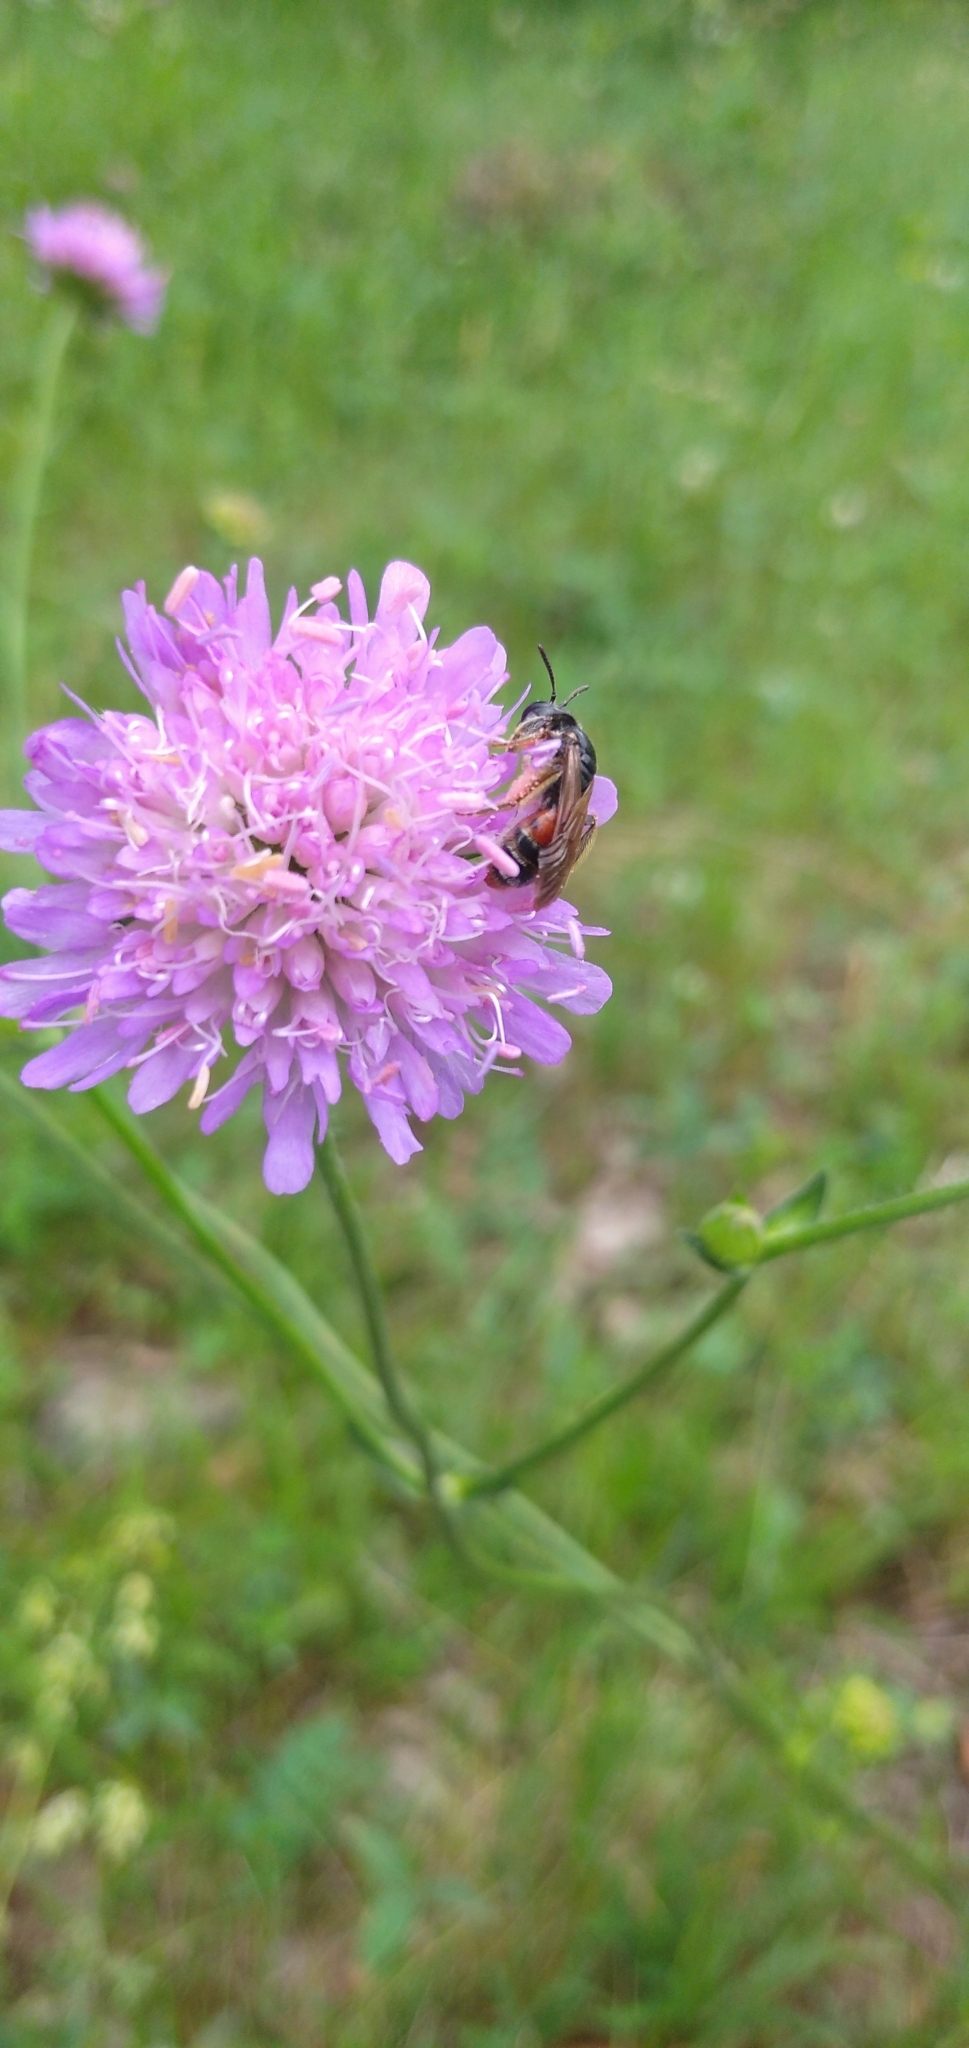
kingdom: Plantae
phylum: Tracheophyta
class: Magnoliopsida
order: Dipsacales
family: Caprifoliaceae
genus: Knautia
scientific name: Knautia arvensis
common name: Field scabiosa
